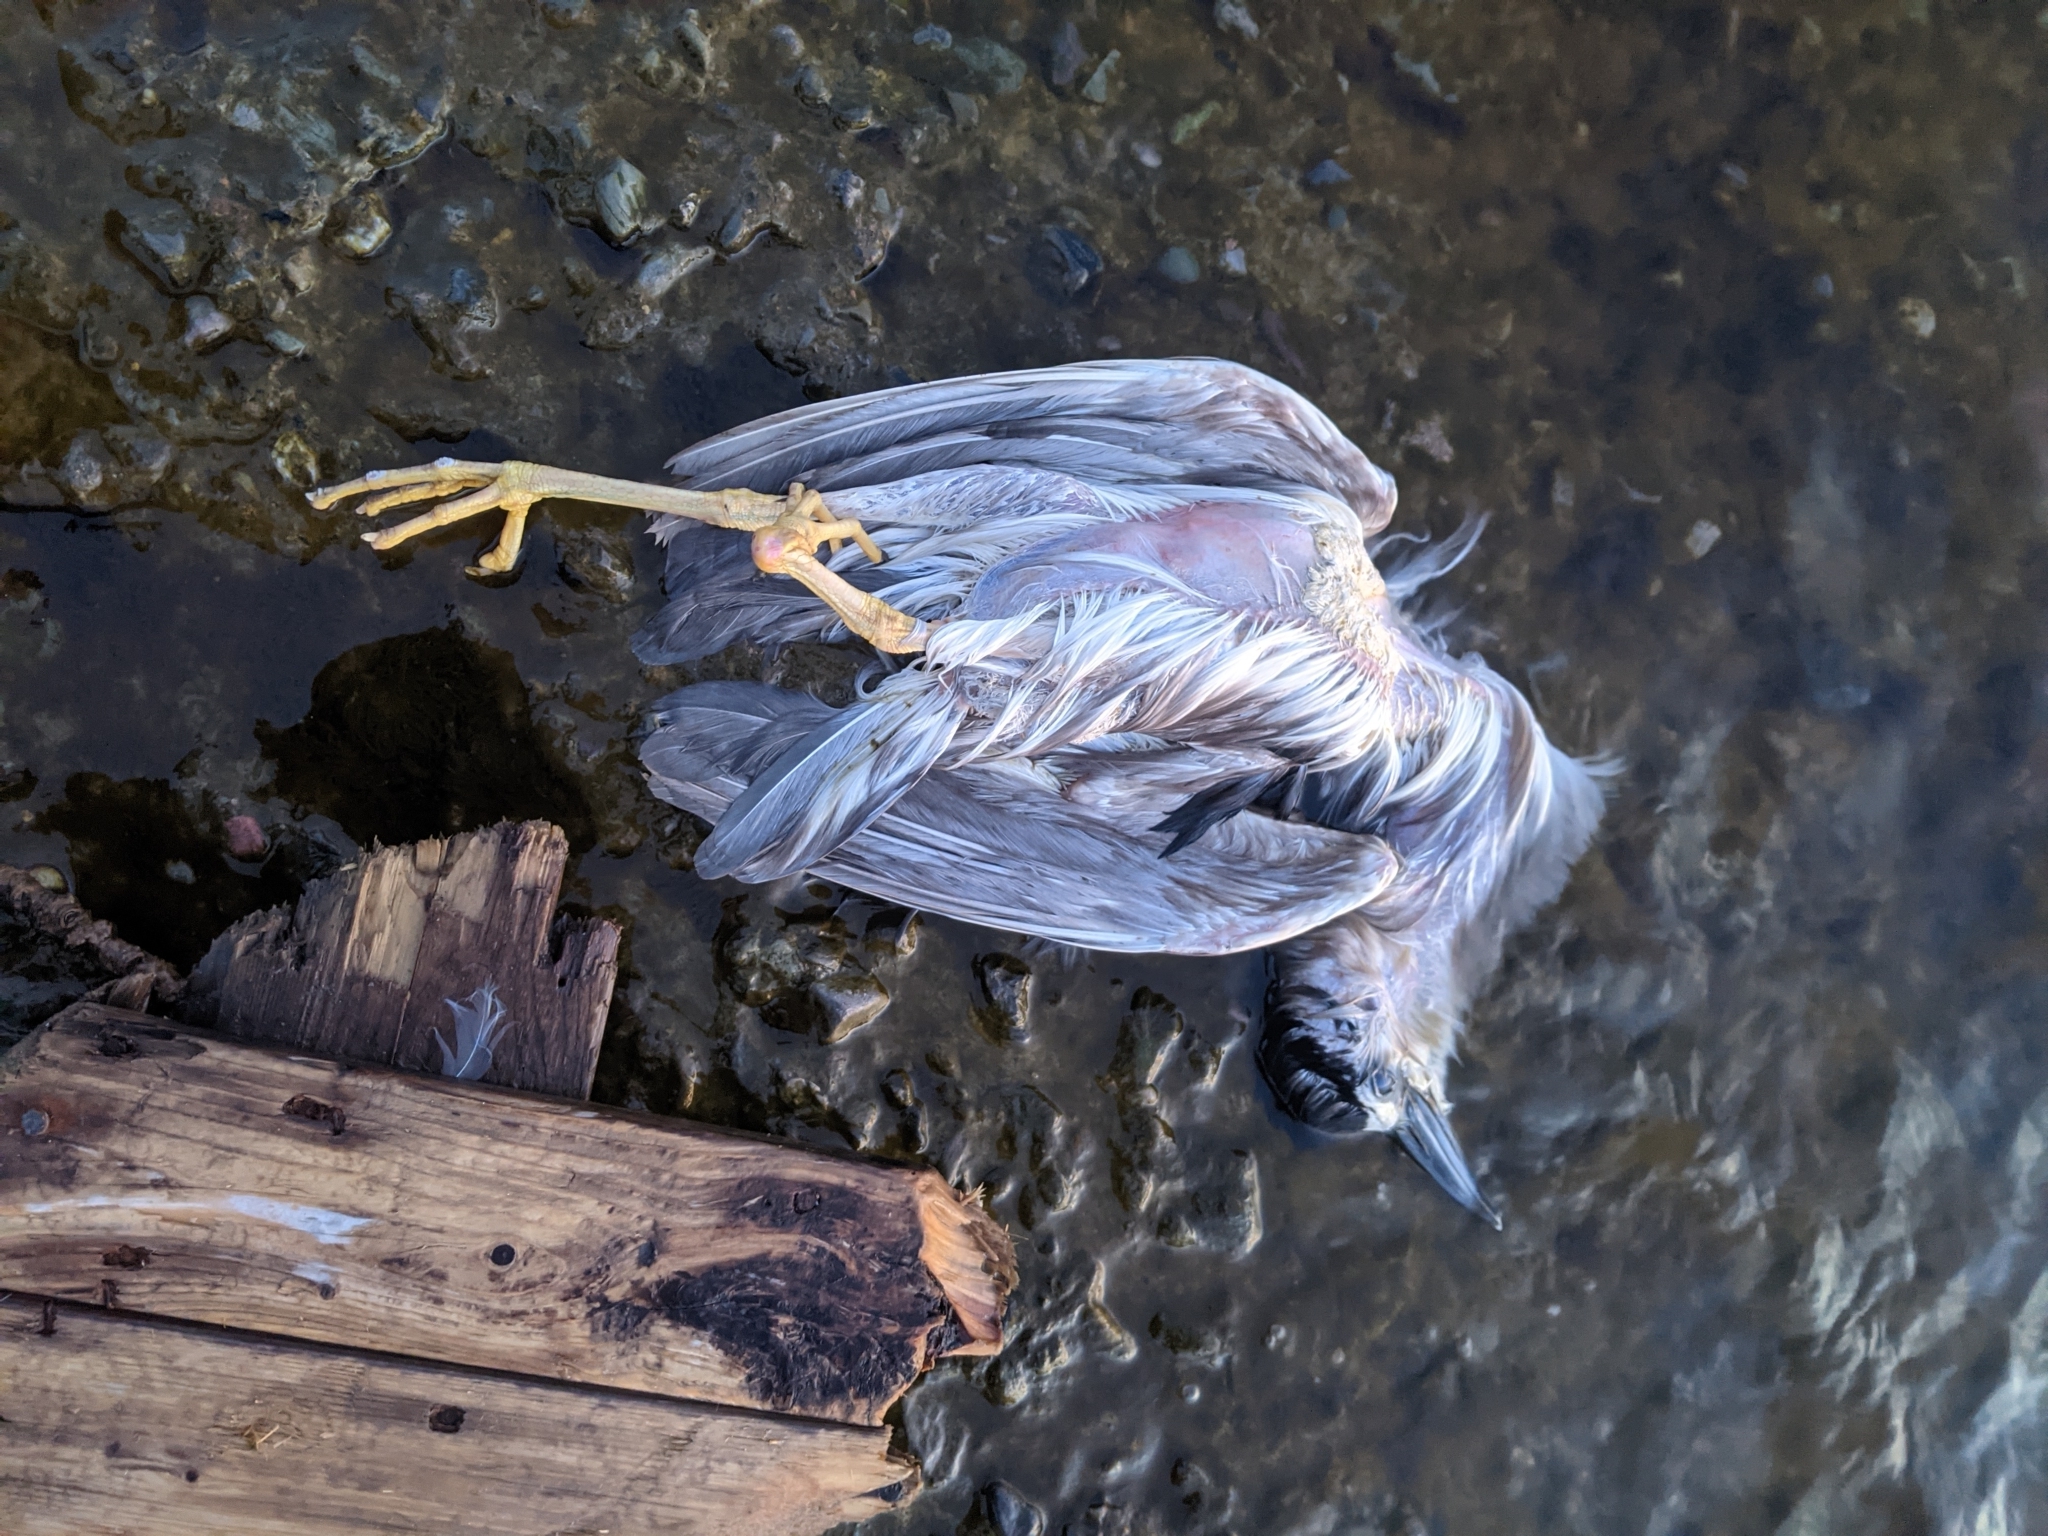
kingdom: Animalia
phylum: Chordata
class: Aves
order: Pelecaniformes
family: Ardeidae
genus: Nycticorax
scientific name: Nycticorax nycticorax
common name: Black-crowned night heron
